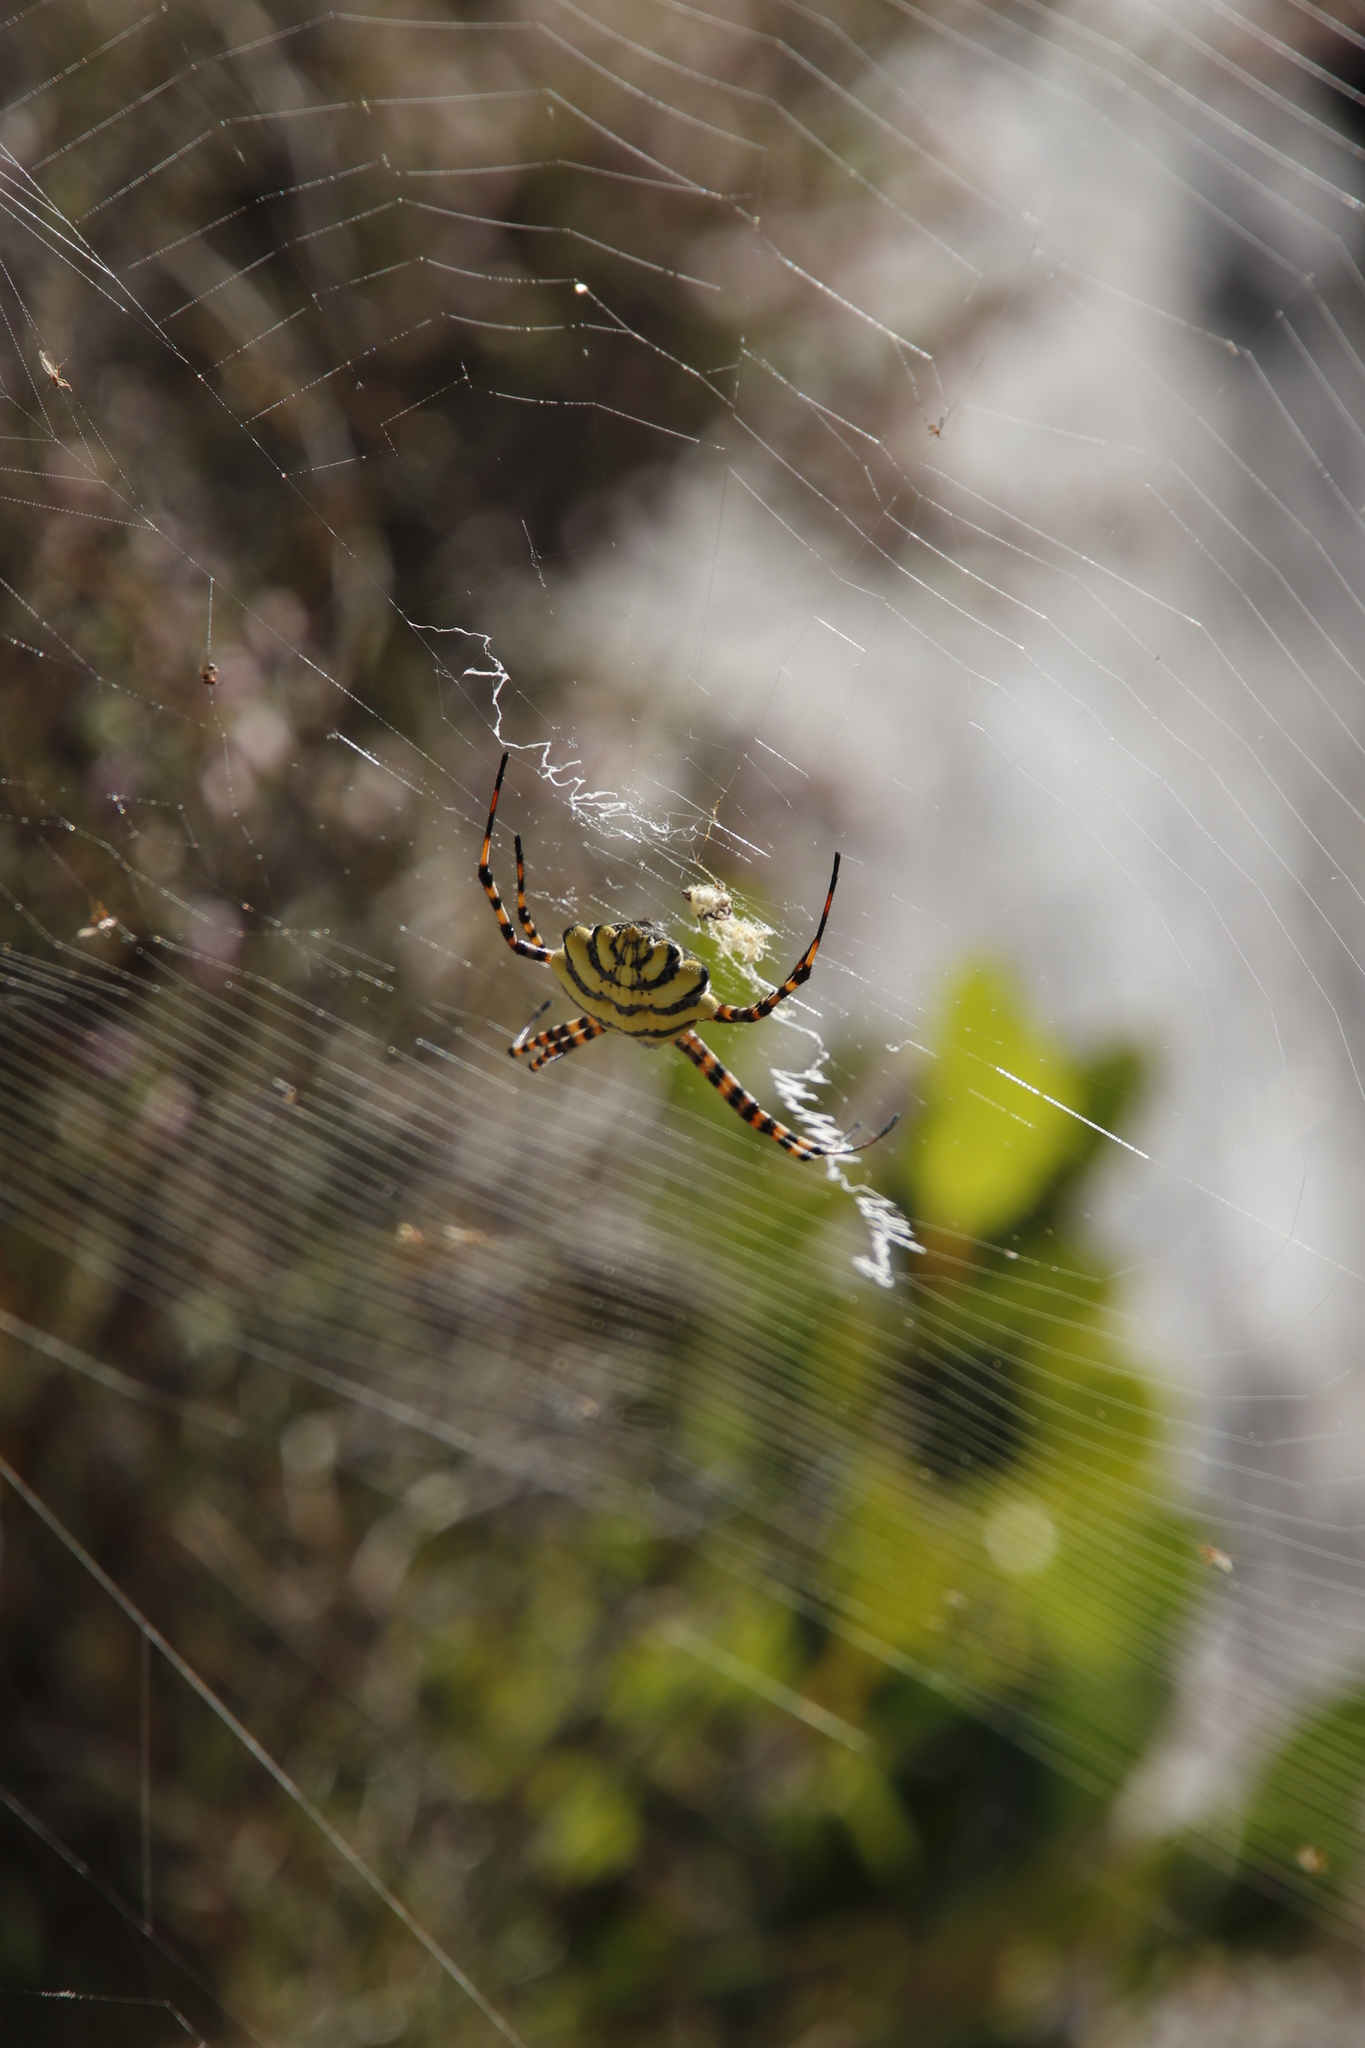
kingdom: Animalia
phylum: Arthropoda
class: Arachnida
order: Araneae
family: Araneidae
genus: Argiope
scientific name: Argiope australis
